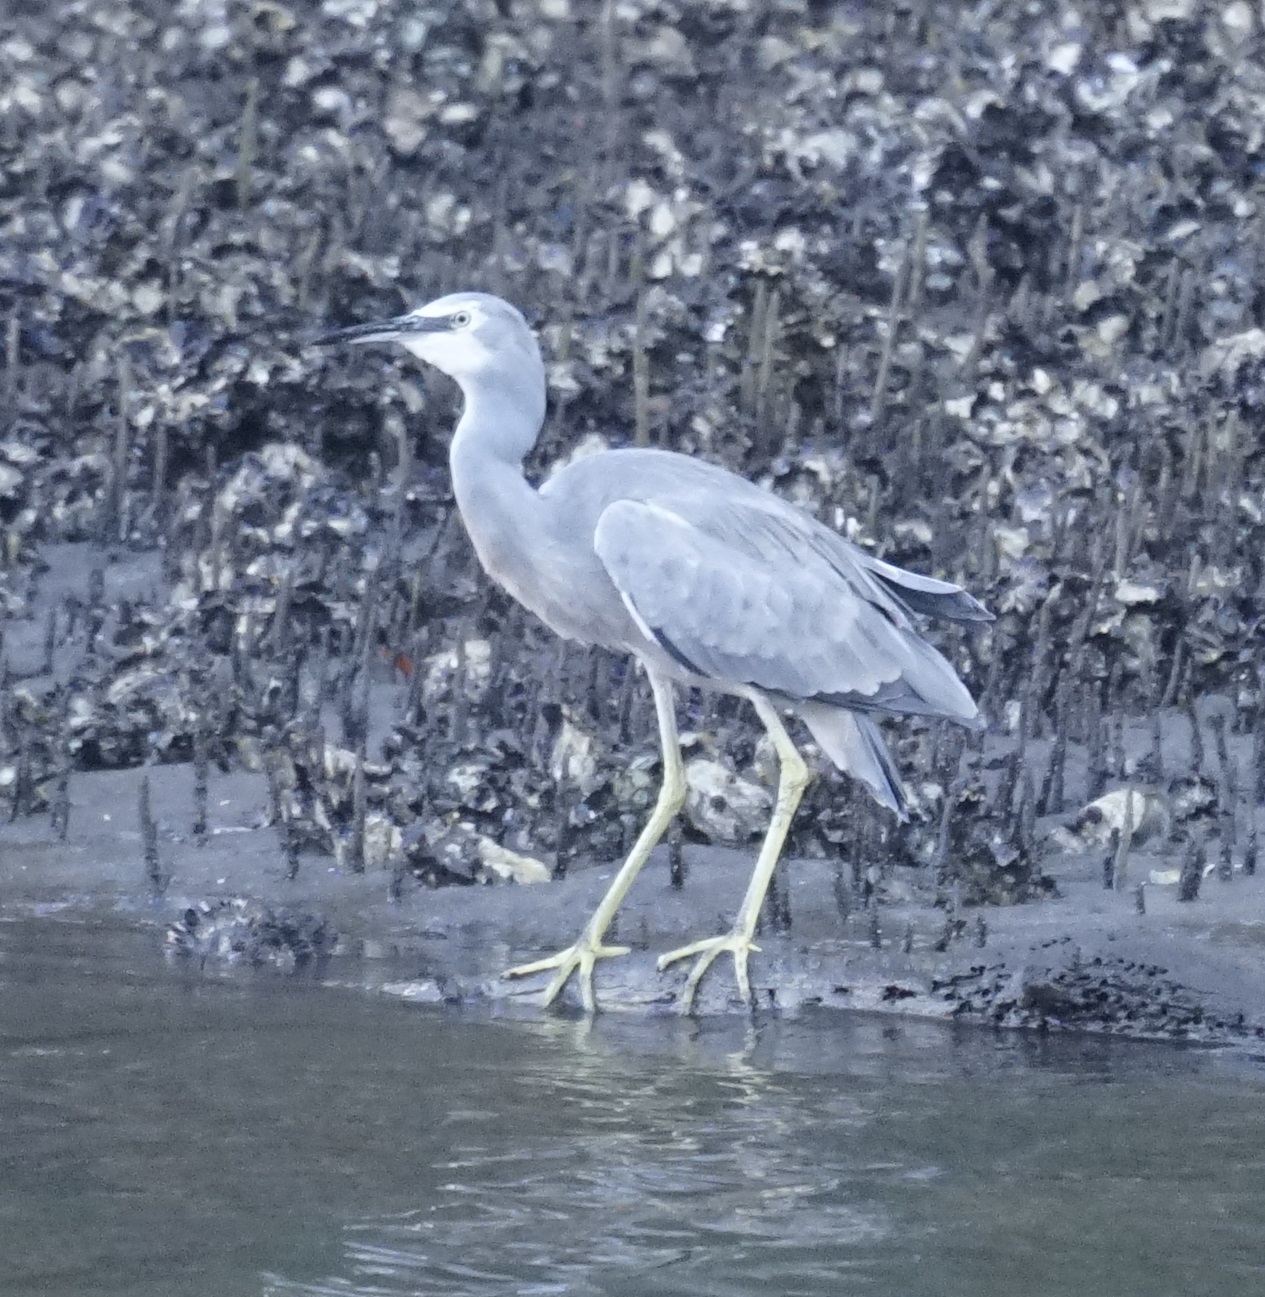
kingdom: Animalia
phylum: Chordata
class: Aves
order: Pelecaniformes
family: Ardeidae
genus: Egretta
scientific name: Egretta novaehollandiae
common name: White-faced heron
